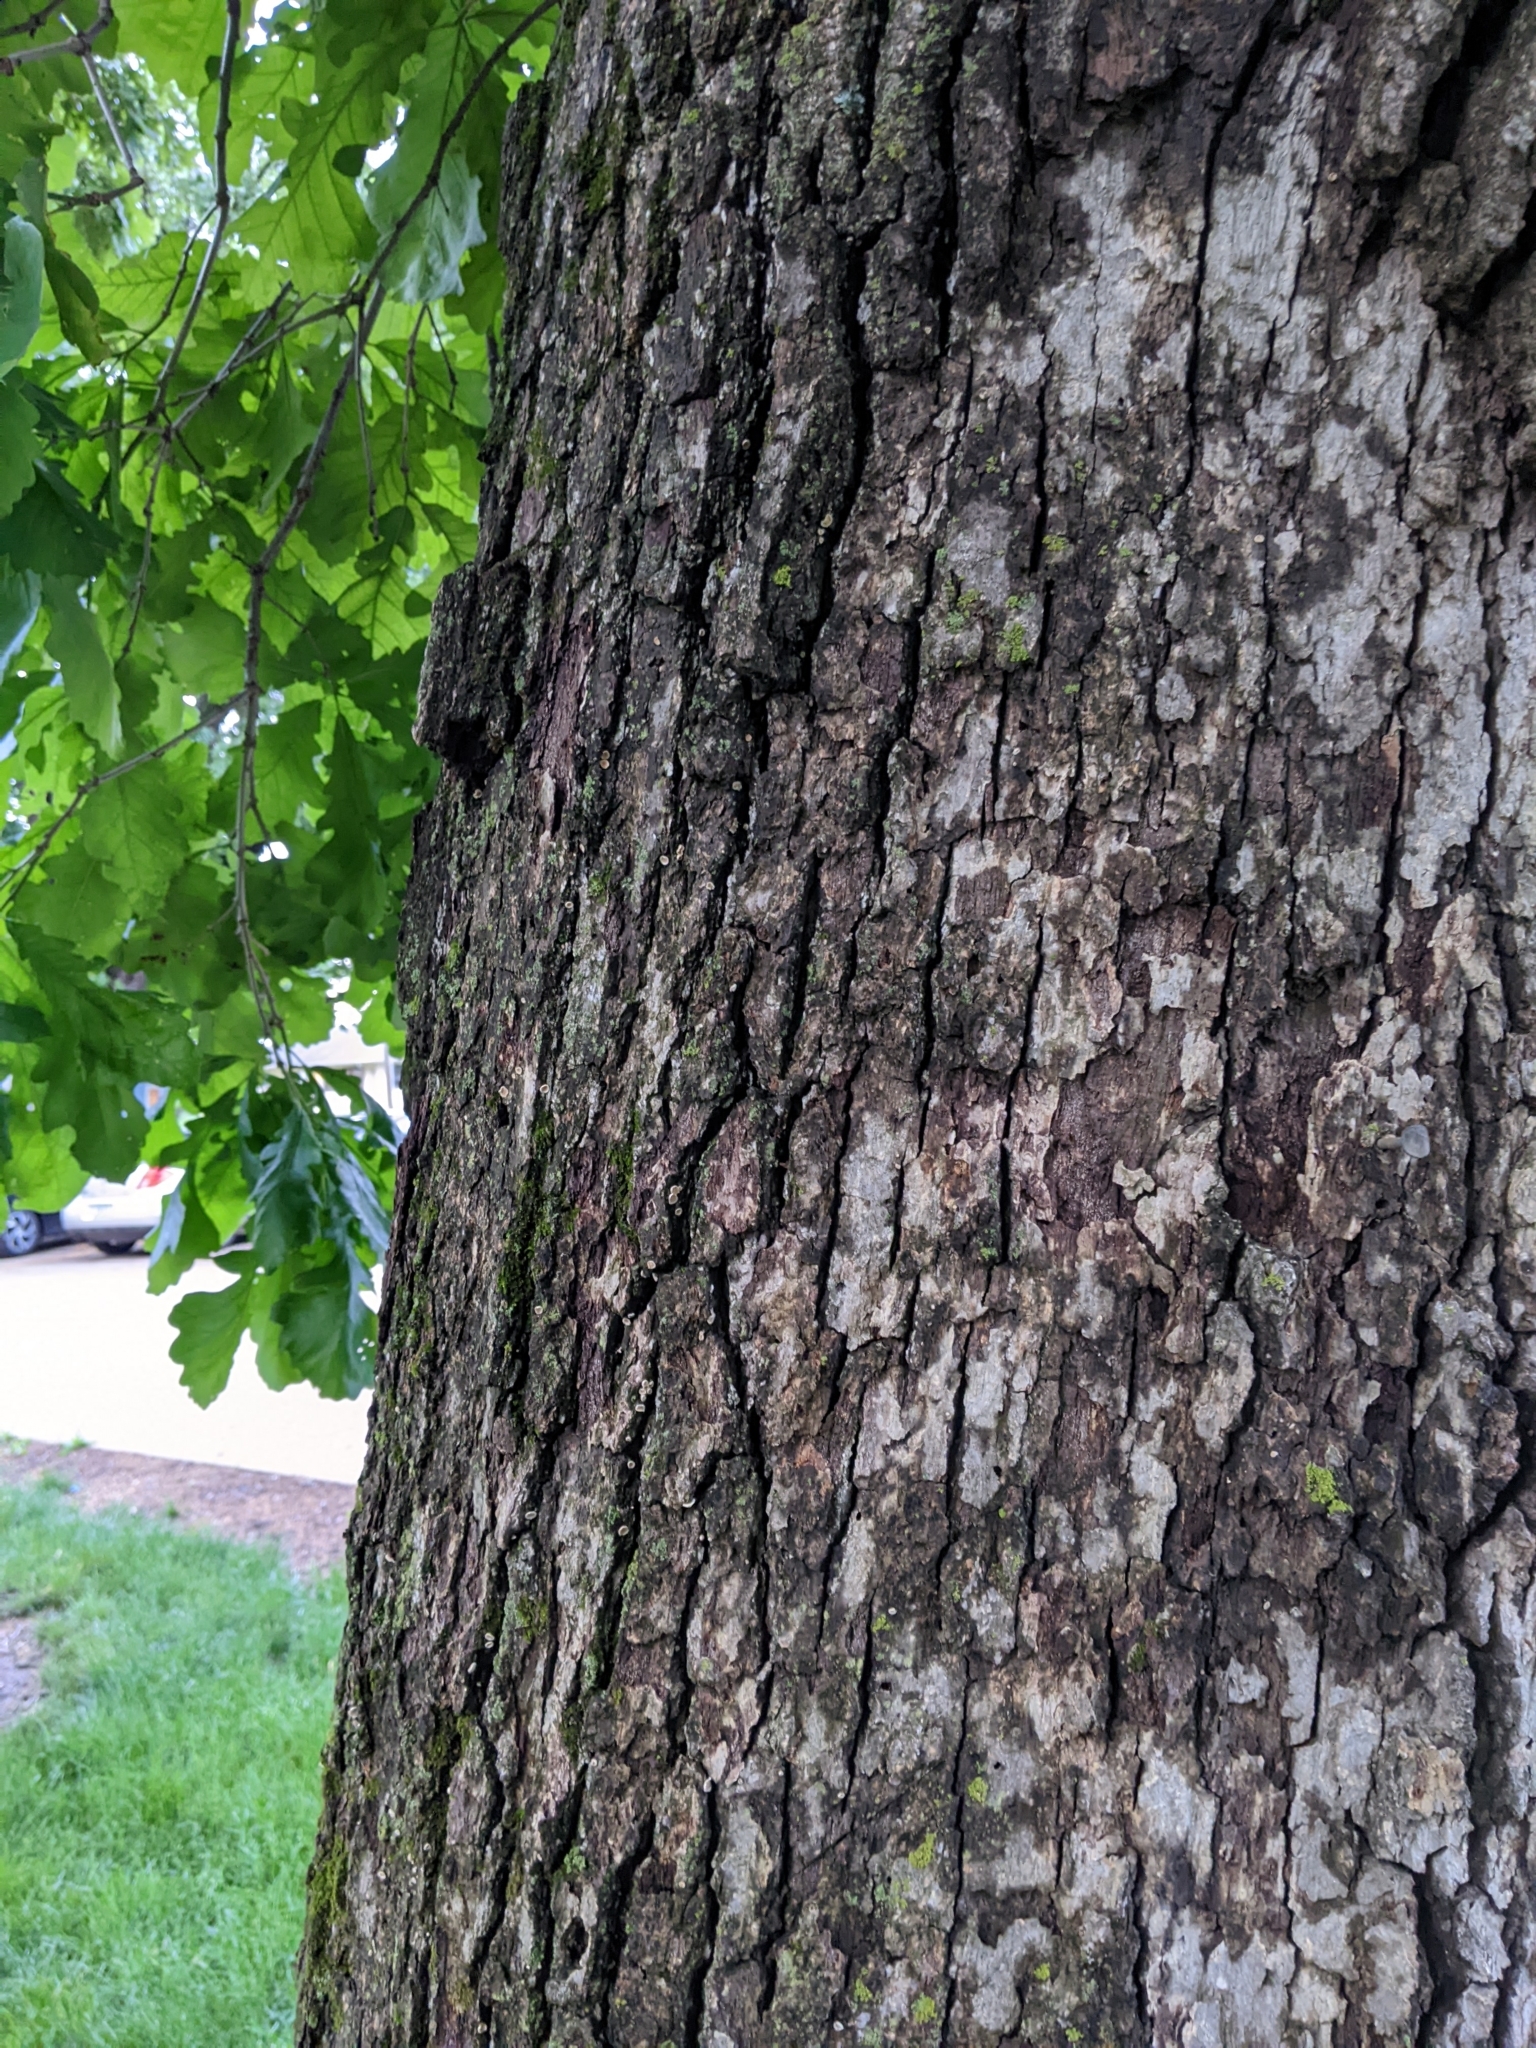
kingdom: Fungi
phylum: Basidiomycota
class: Agaricomycetes
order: Russulales
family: Stereaceae
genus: Acanthophysium
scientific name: Acanthophysium oakesii
